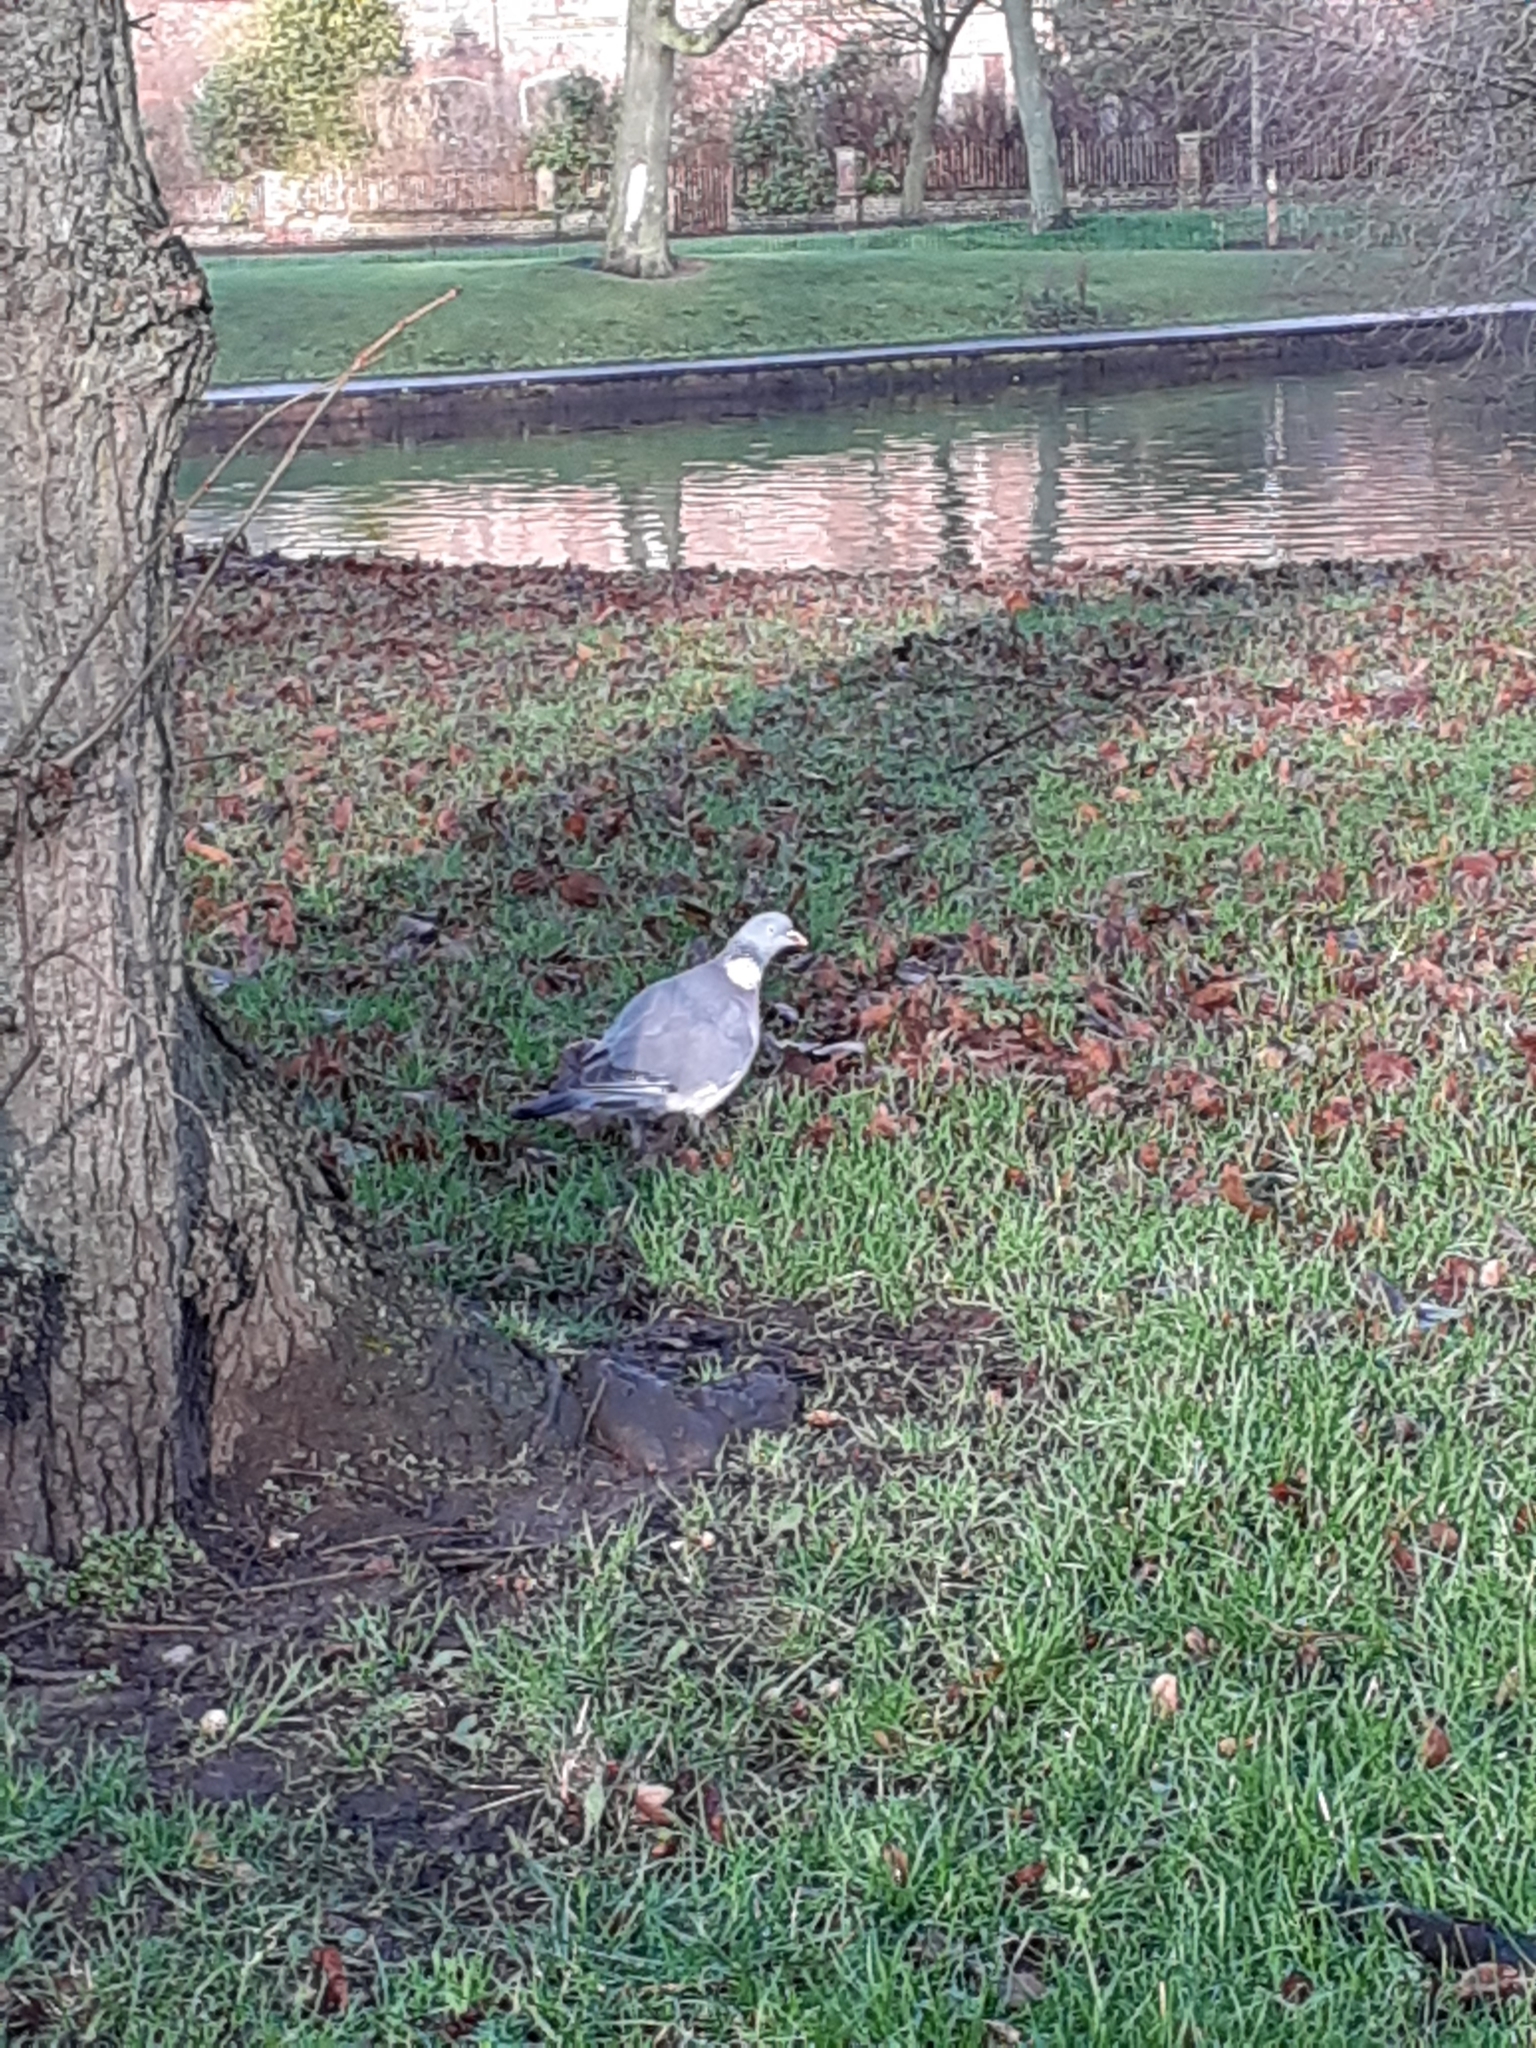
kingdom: Animalia
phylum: Chordata
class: Aves
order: Columbiformes
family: Columbidae
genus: Columba
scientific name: Columba palumbus
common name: Common wood pigeon
